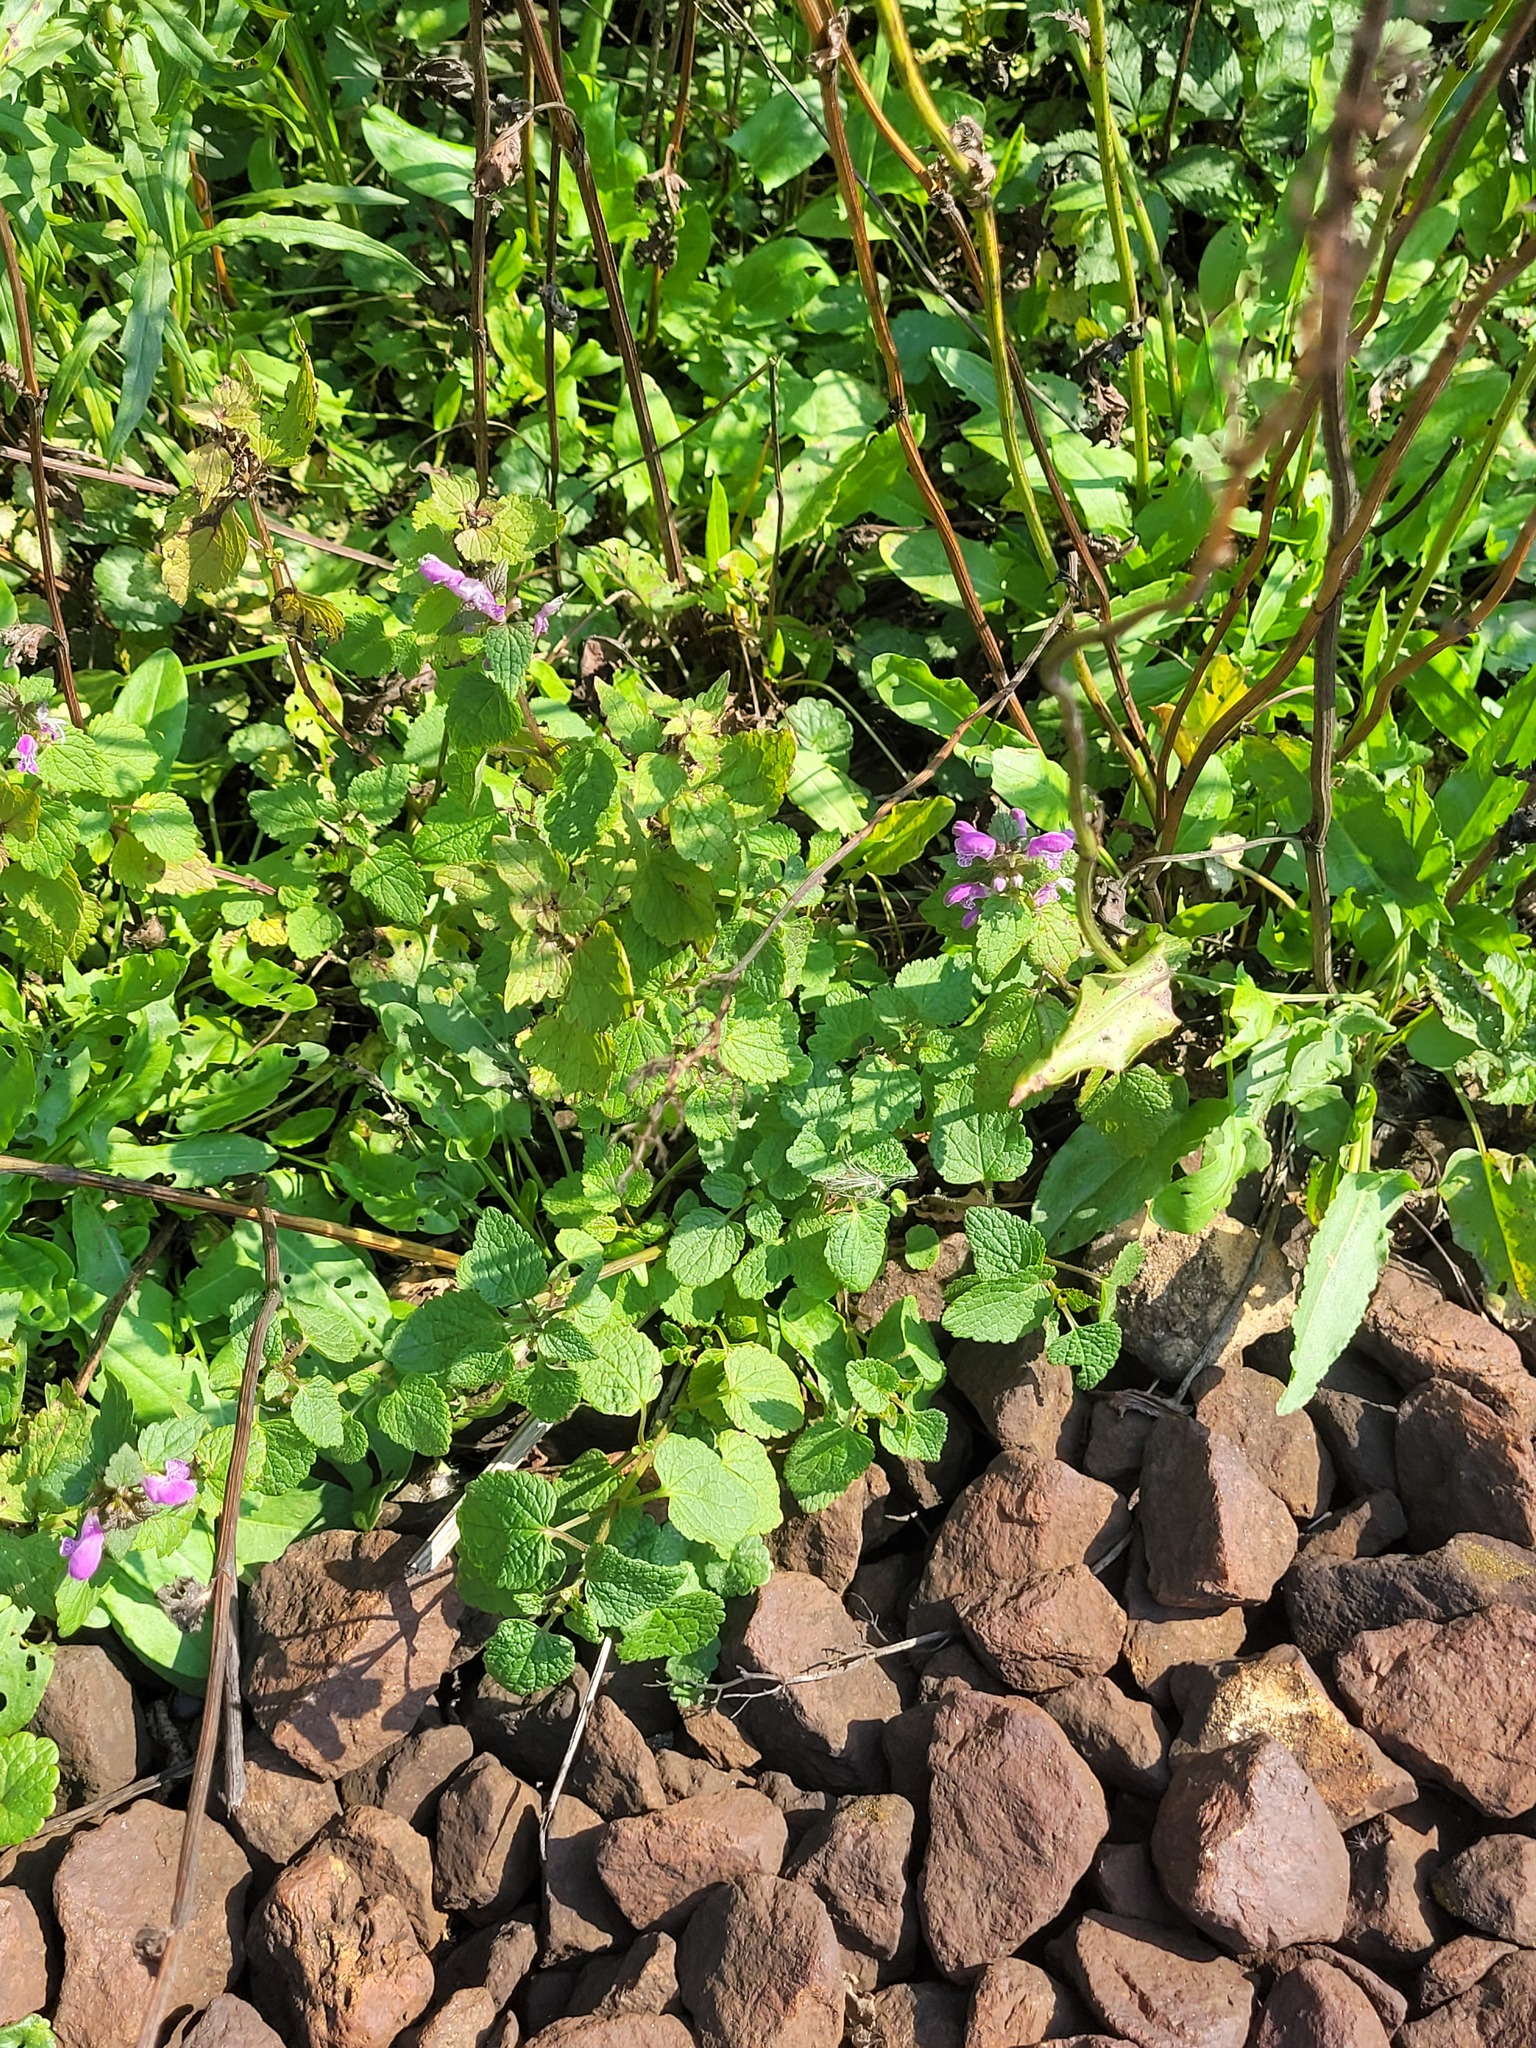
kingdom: Plantae
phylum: Tracheophyta
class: Magnoliopsida
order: Lamiales
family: Lamiaceae
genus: Lamium
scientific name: Lamium maculatum
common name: Spotted dead-nettle
